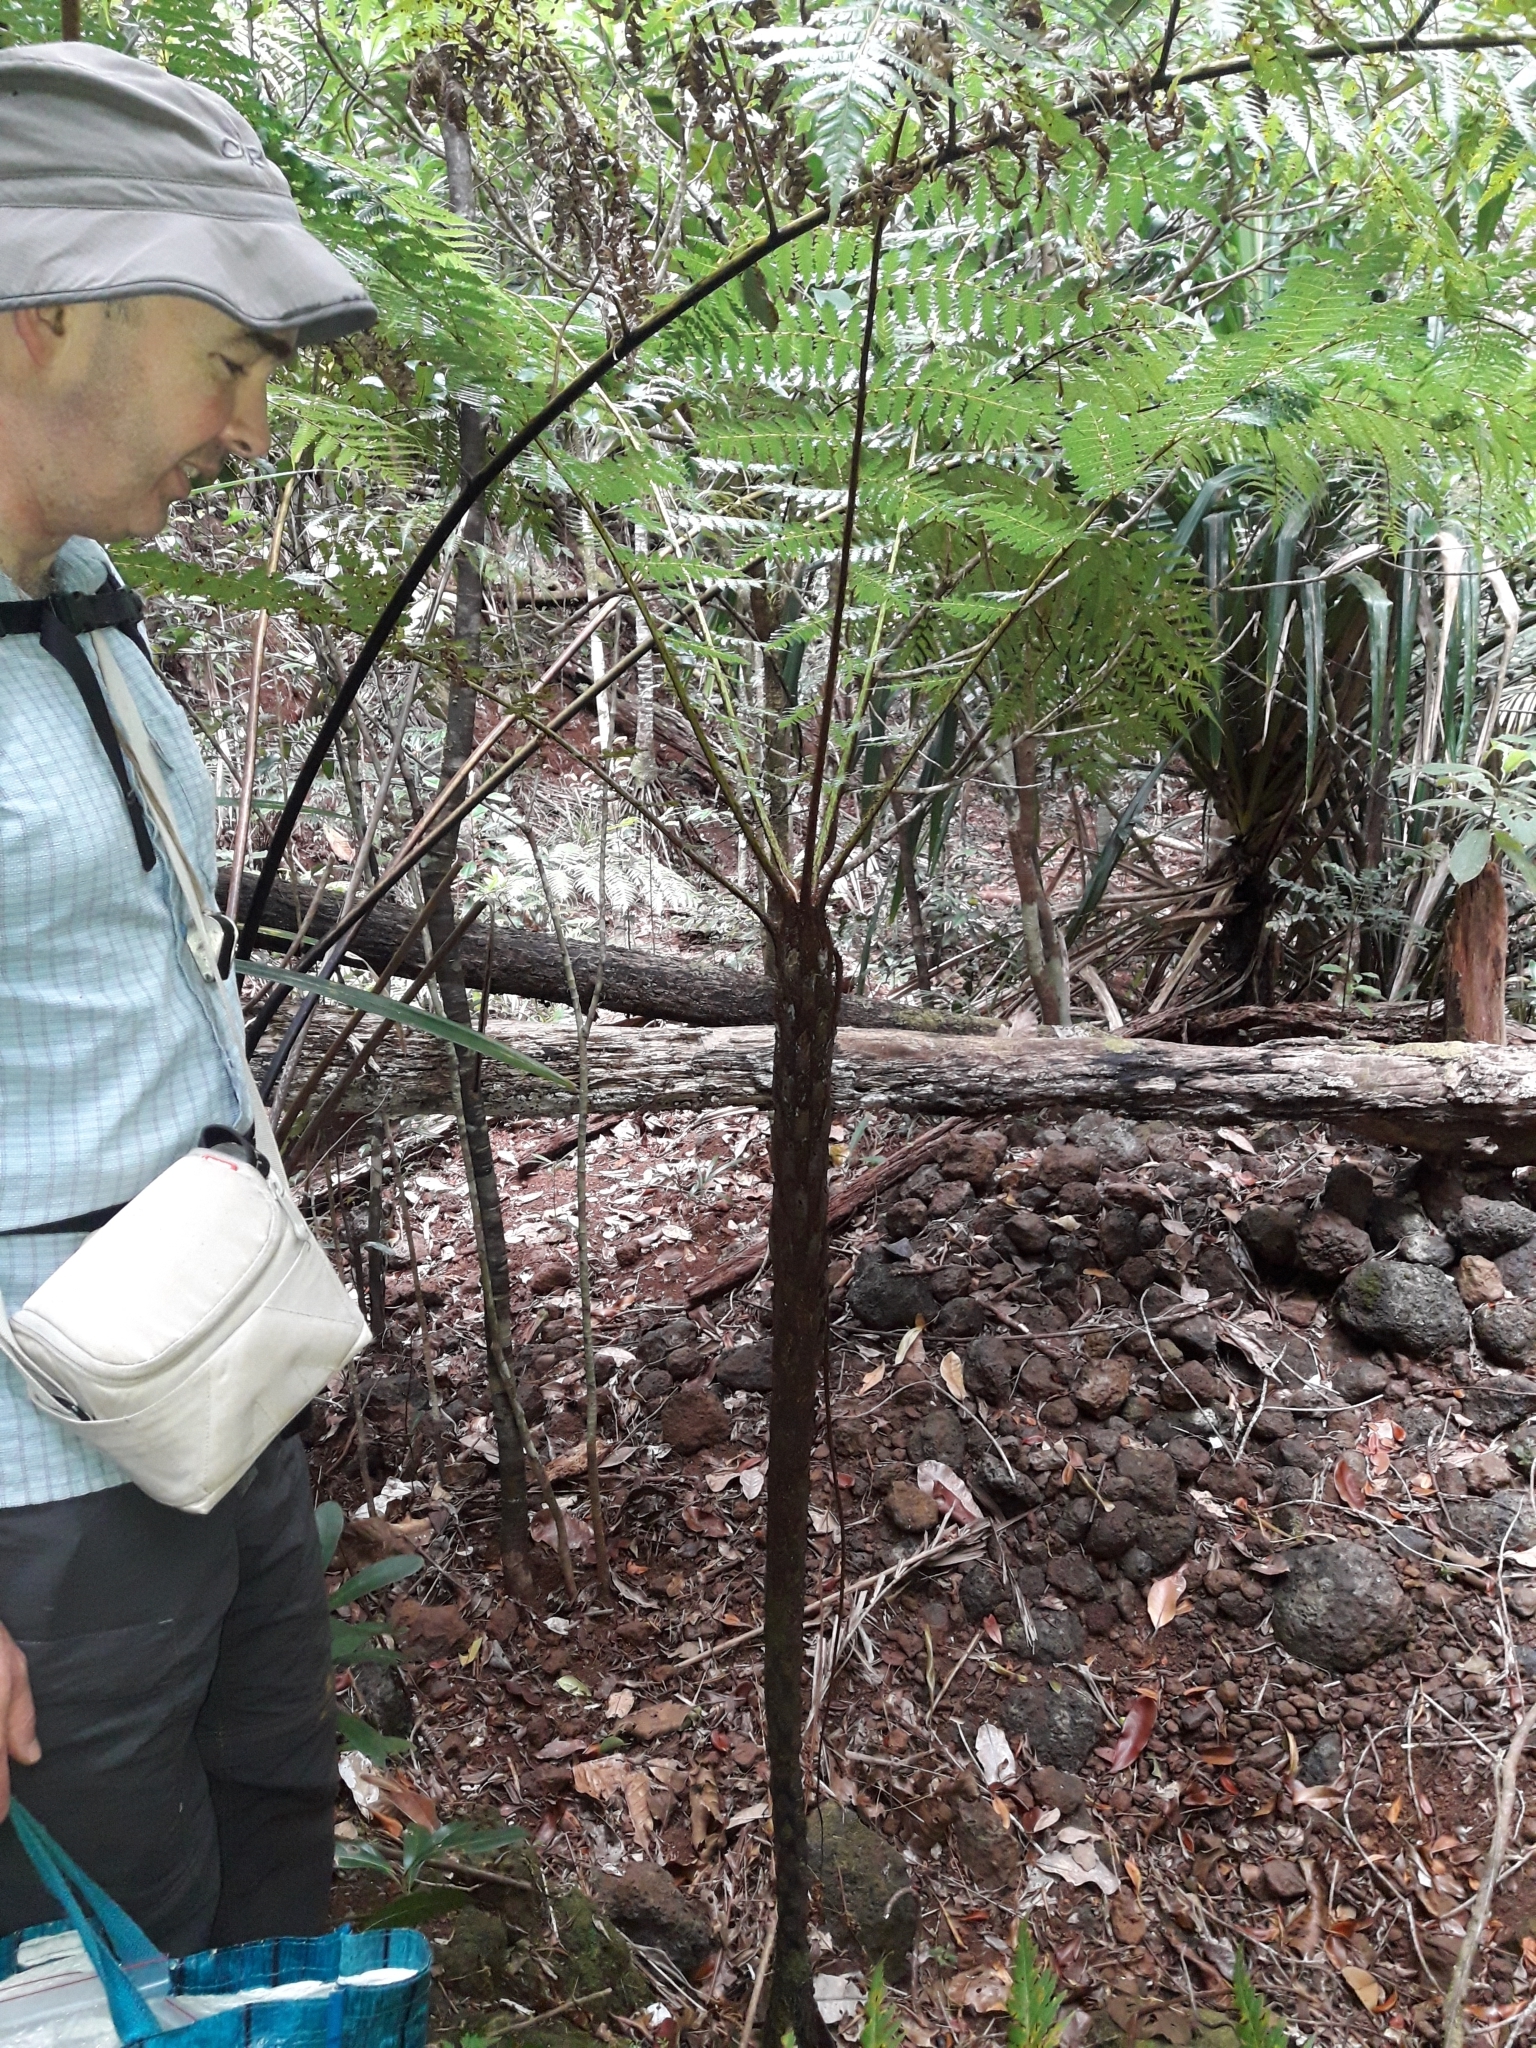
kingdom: Plantae
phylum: Tracheophyta
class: Polypodiopsida
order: Cyatheales
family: Cyatheaceae
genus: Alsophila
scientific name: Alsophila vieillardii
